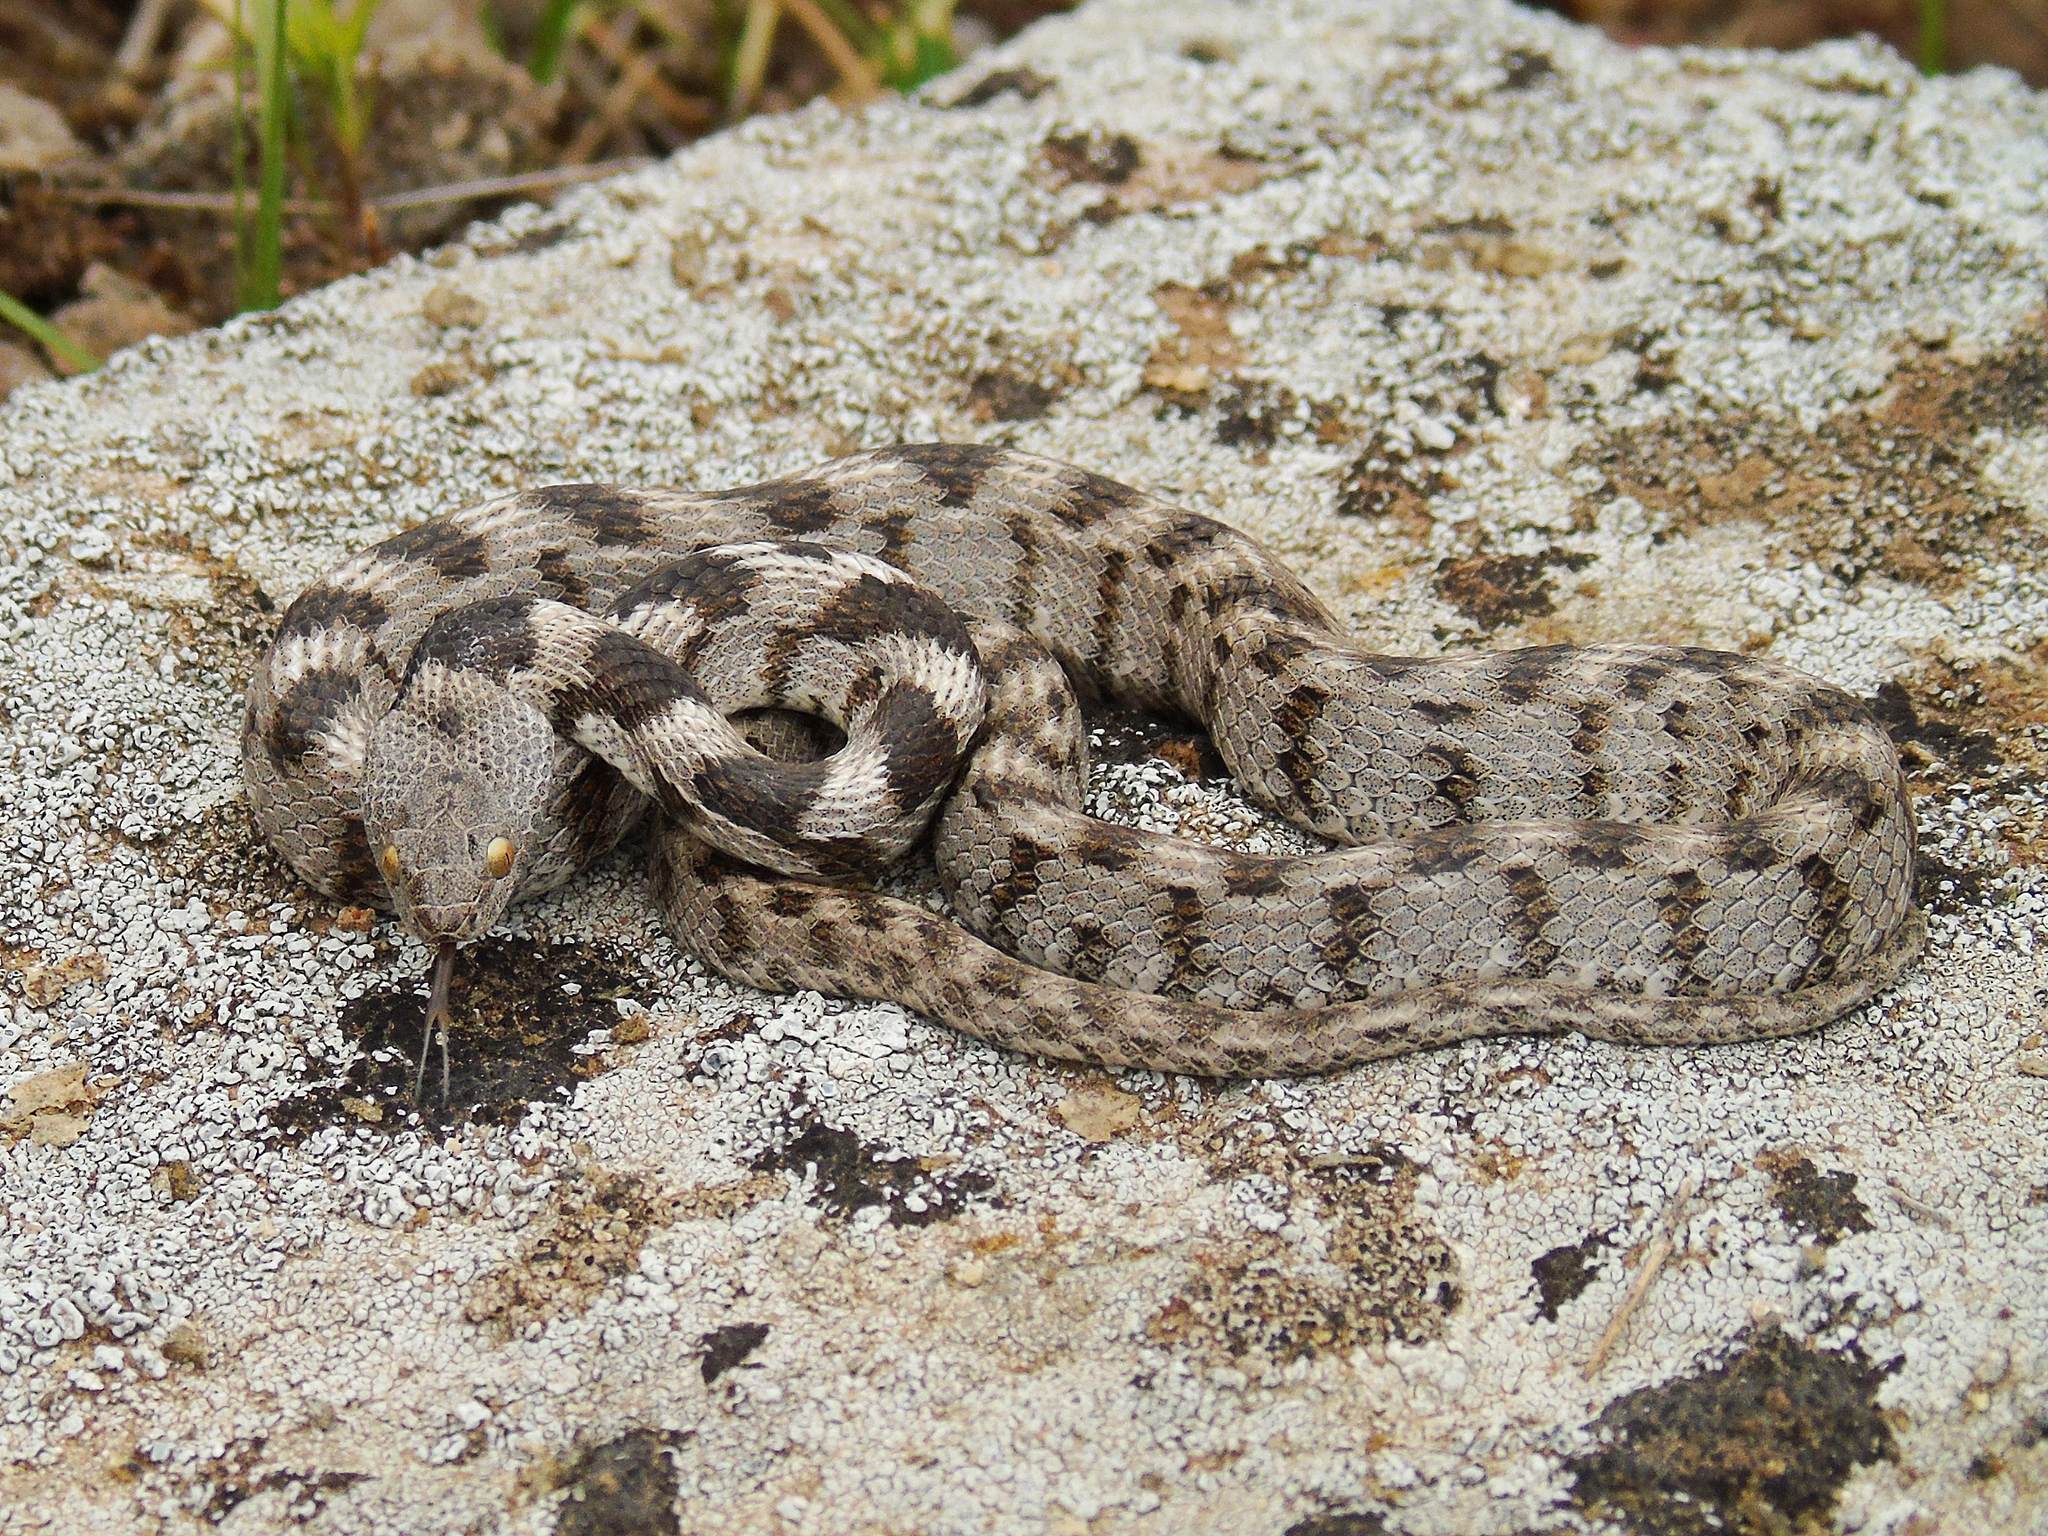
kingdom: Animalia
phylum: Chordata
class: Squamata
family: Colubridae
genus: Telescopus
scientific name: Telescopus fallax
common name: Cat snake
